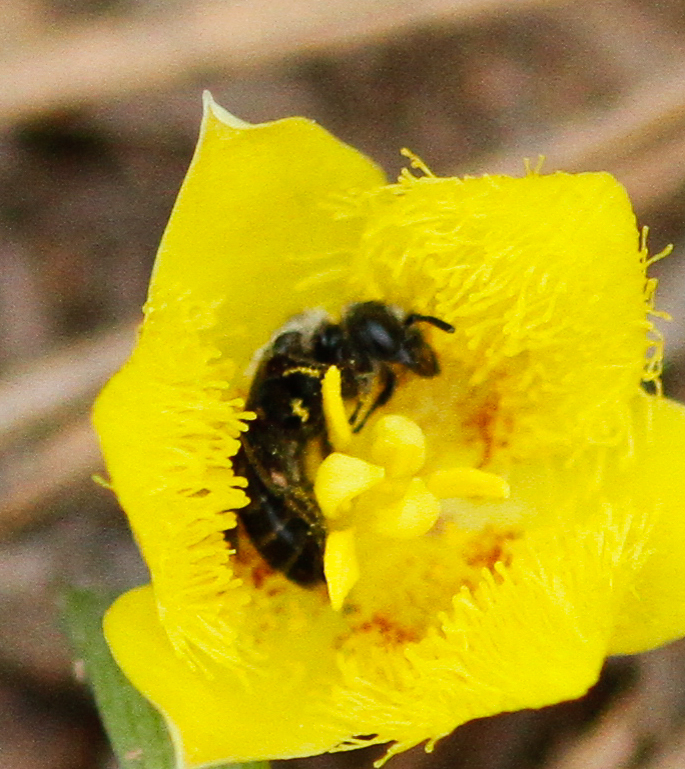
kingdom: Plantae
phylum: Tracheophyta
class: Liliopsida
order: Liliales
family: Liliaceae
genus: Calochortus
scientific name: Calochortus monophyllus
